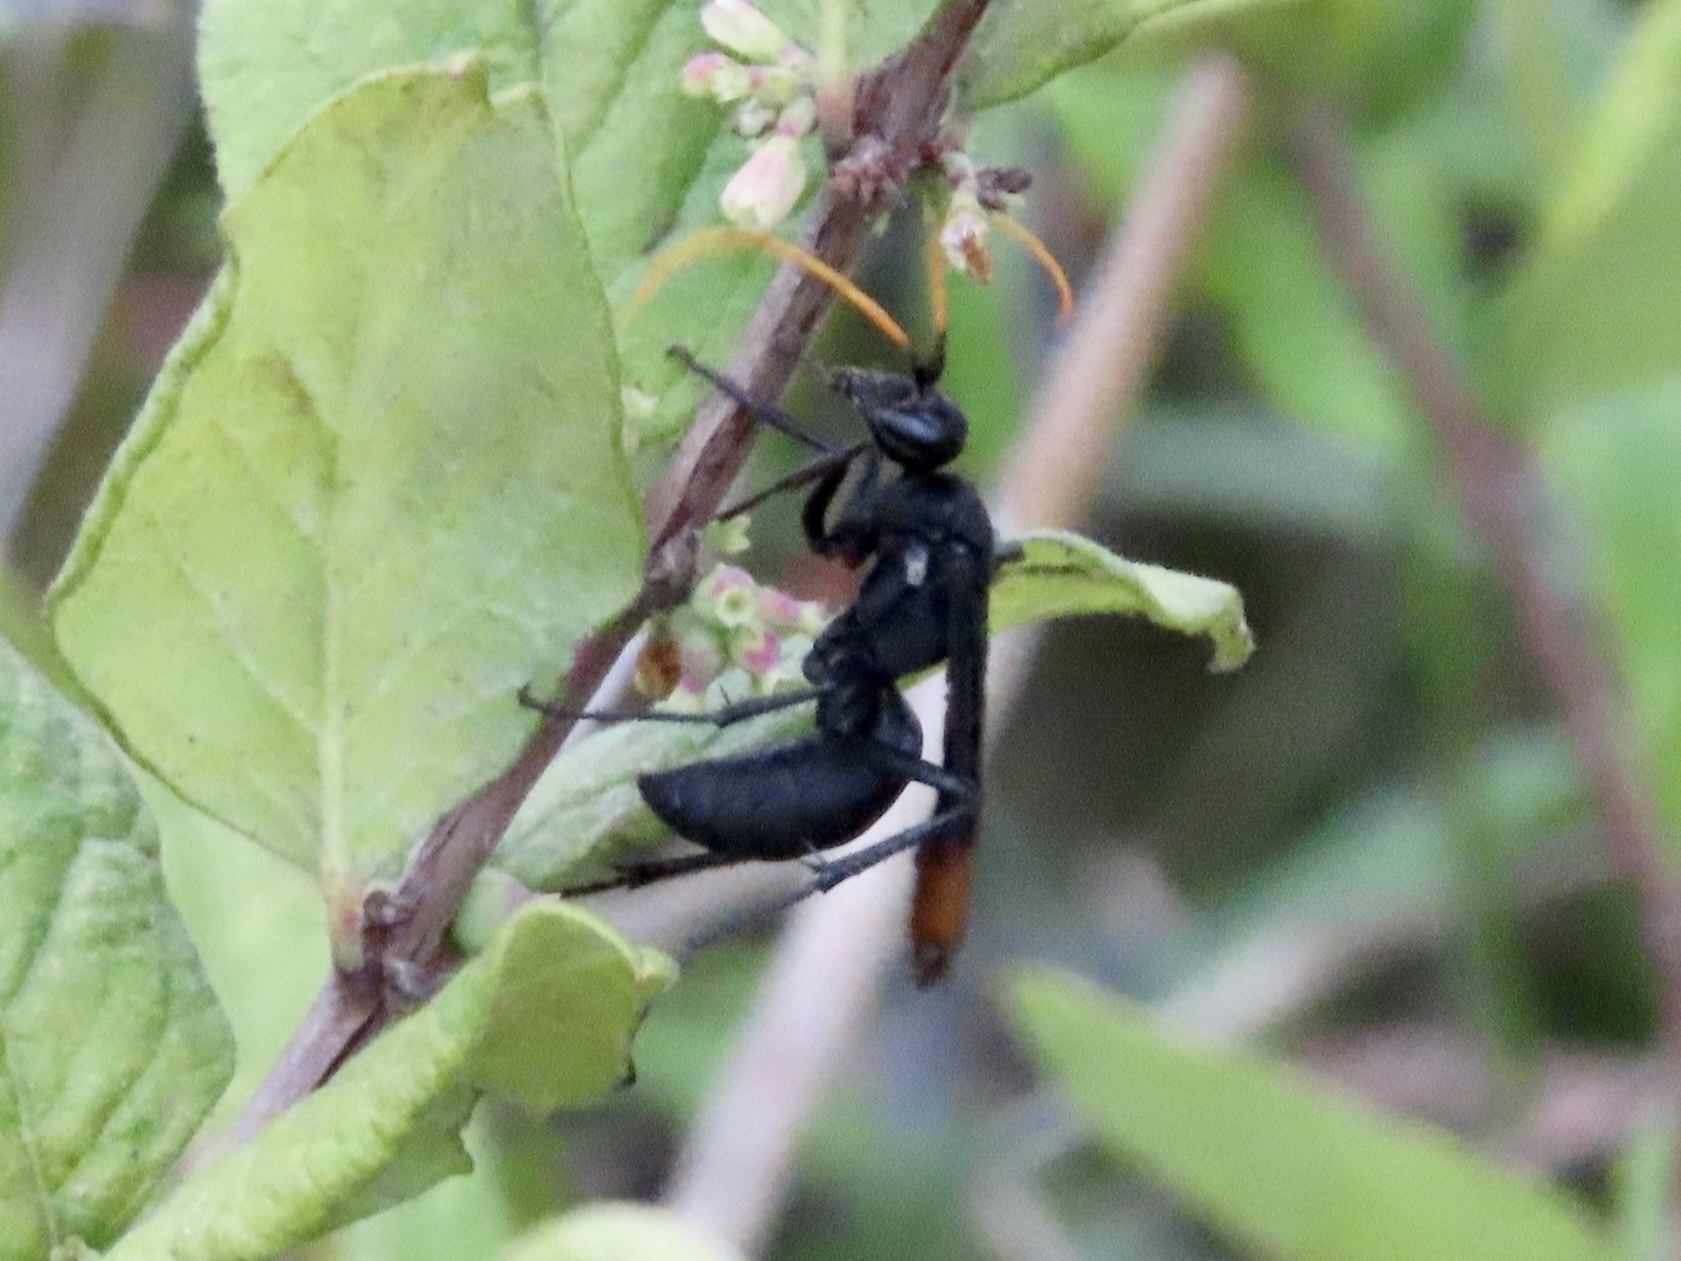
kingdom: Animalia
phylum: Arthropoda
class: Insecta
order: Hymenoptera
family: Pompilidae
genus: Entypus
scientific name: Entypus unifasciatus
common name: Eastern tawny-horned spider wasp
